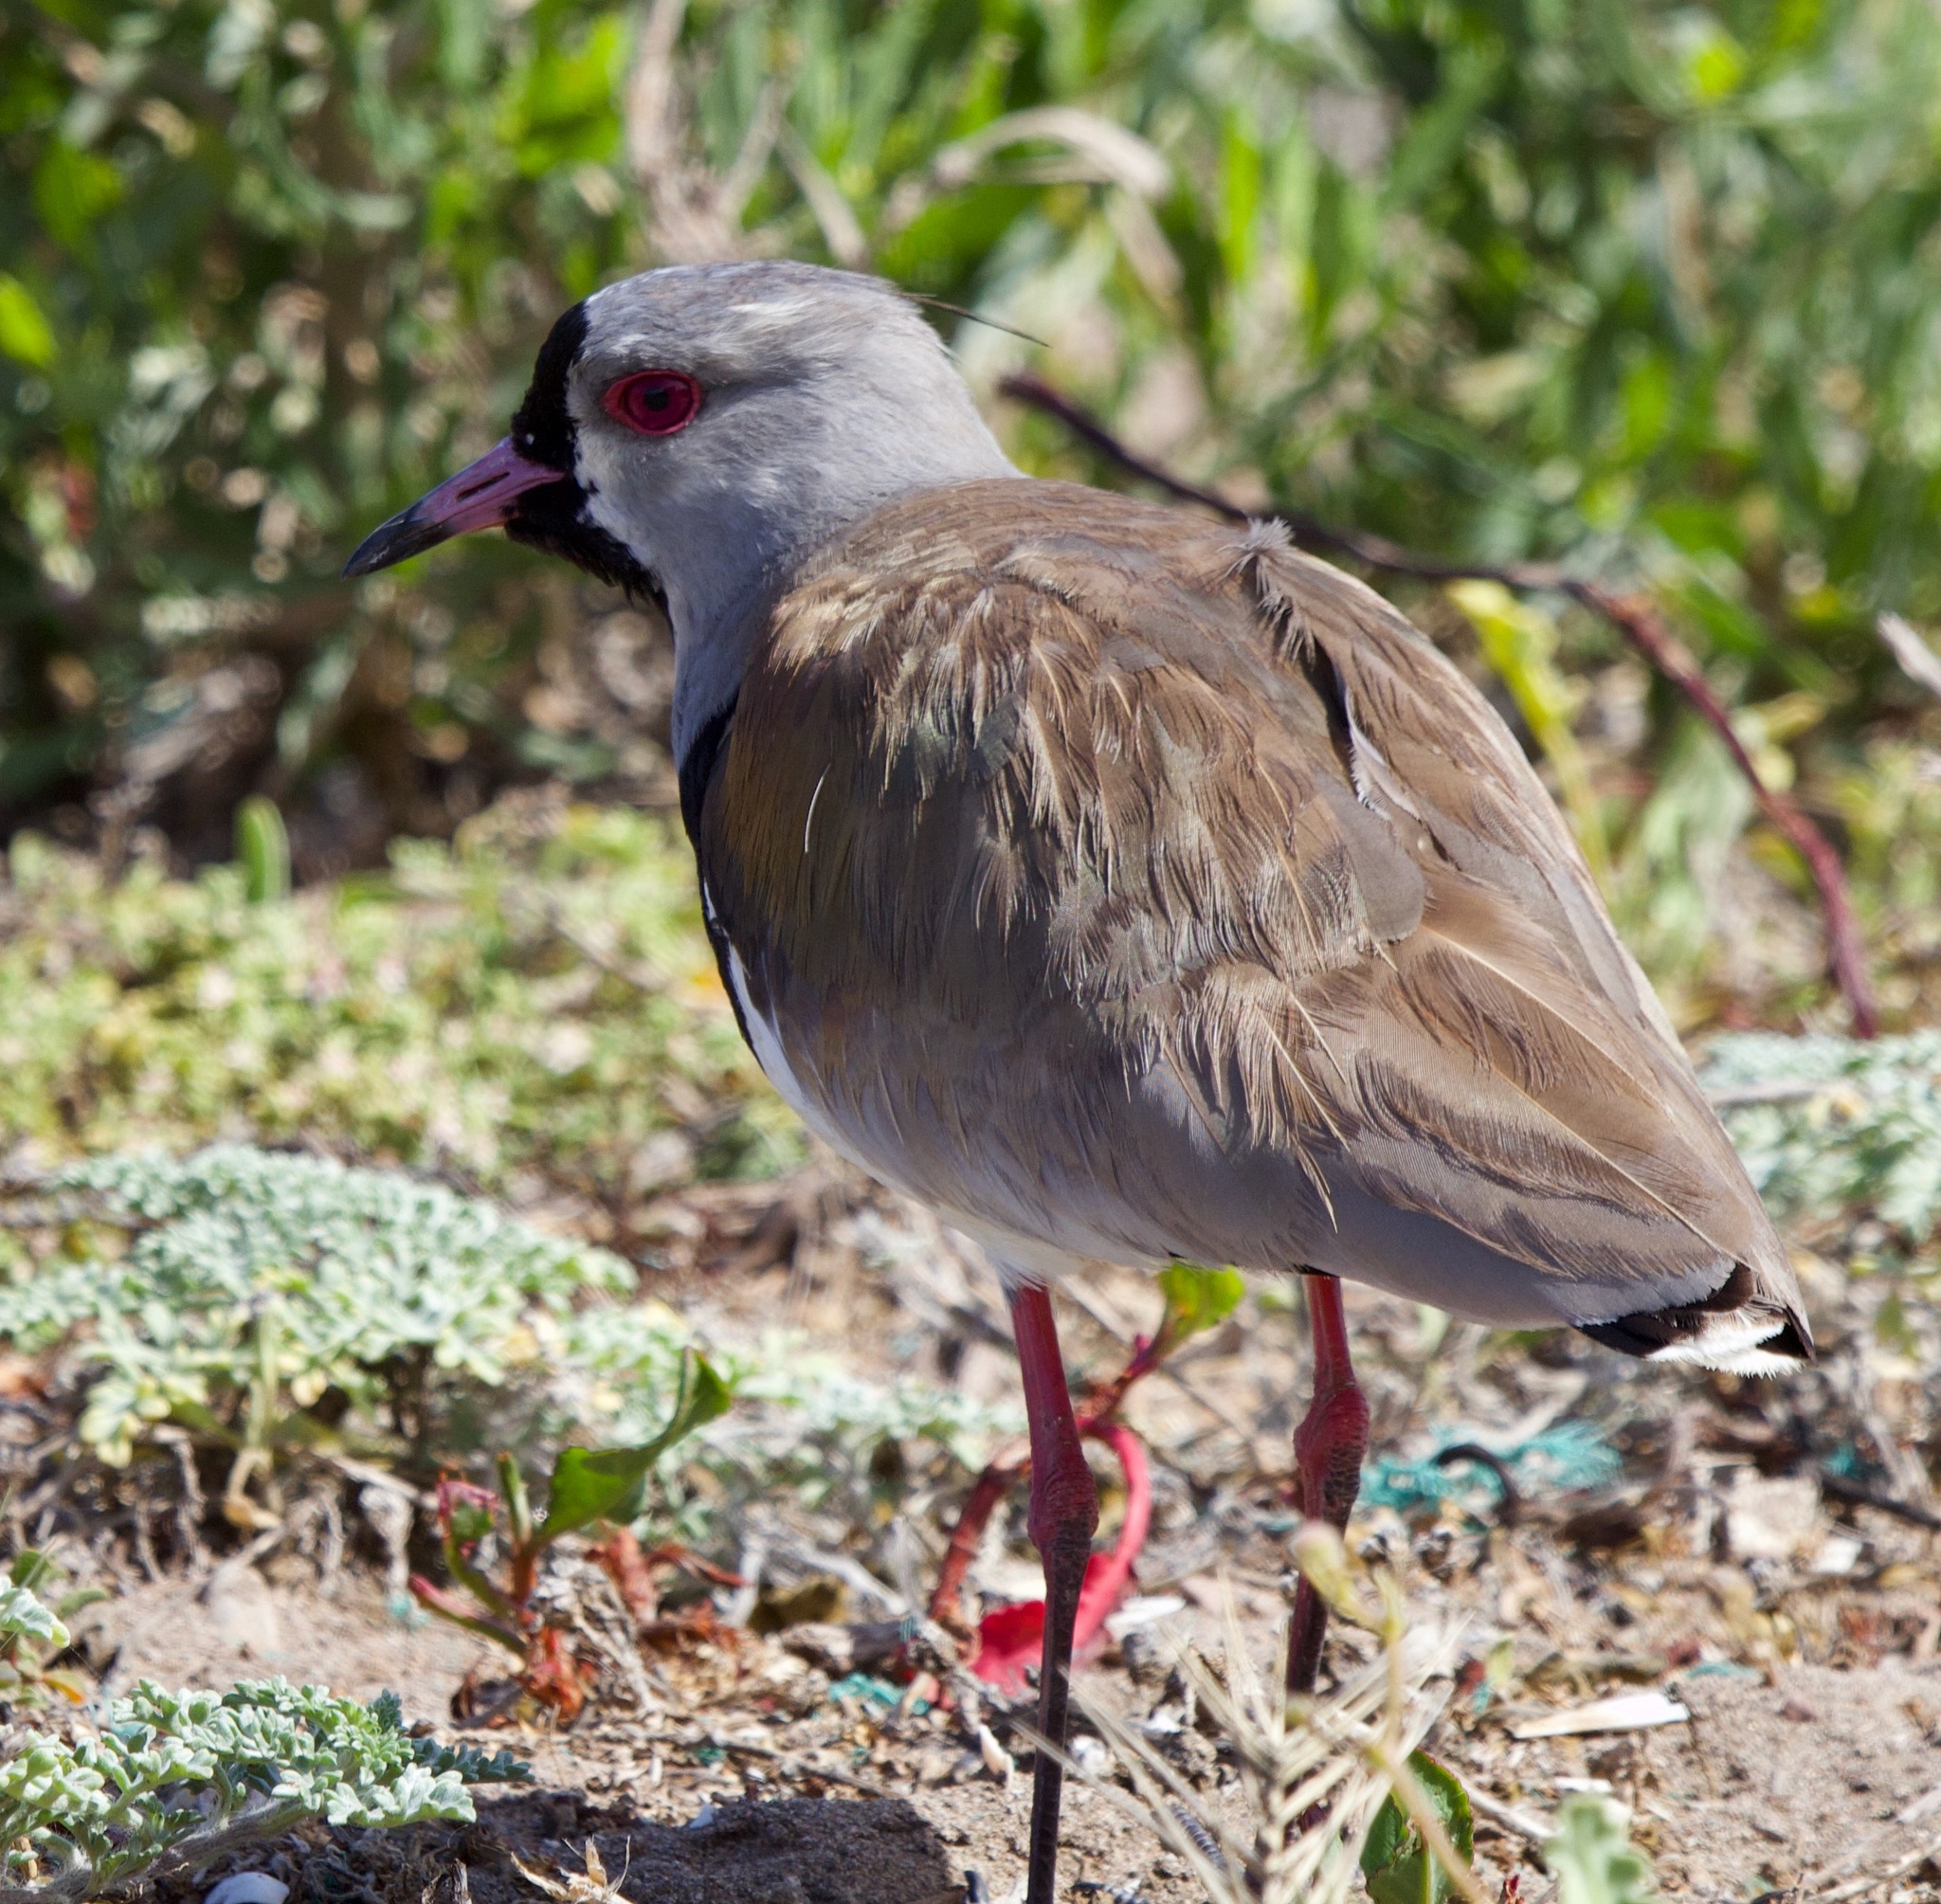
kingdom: Animalia
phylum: Chordata
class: Aves
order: Charadriiformes
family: Charadriidae
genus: Vanellus
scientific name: Vanellus chilensis
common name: Southern lapwing
